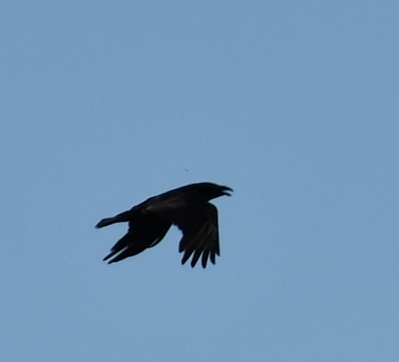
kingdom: Animalia
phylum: Chordata
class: Aves
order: Passeriformes
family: Corvidae
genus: Corvus
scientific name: Corvus corax
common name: Common raven
